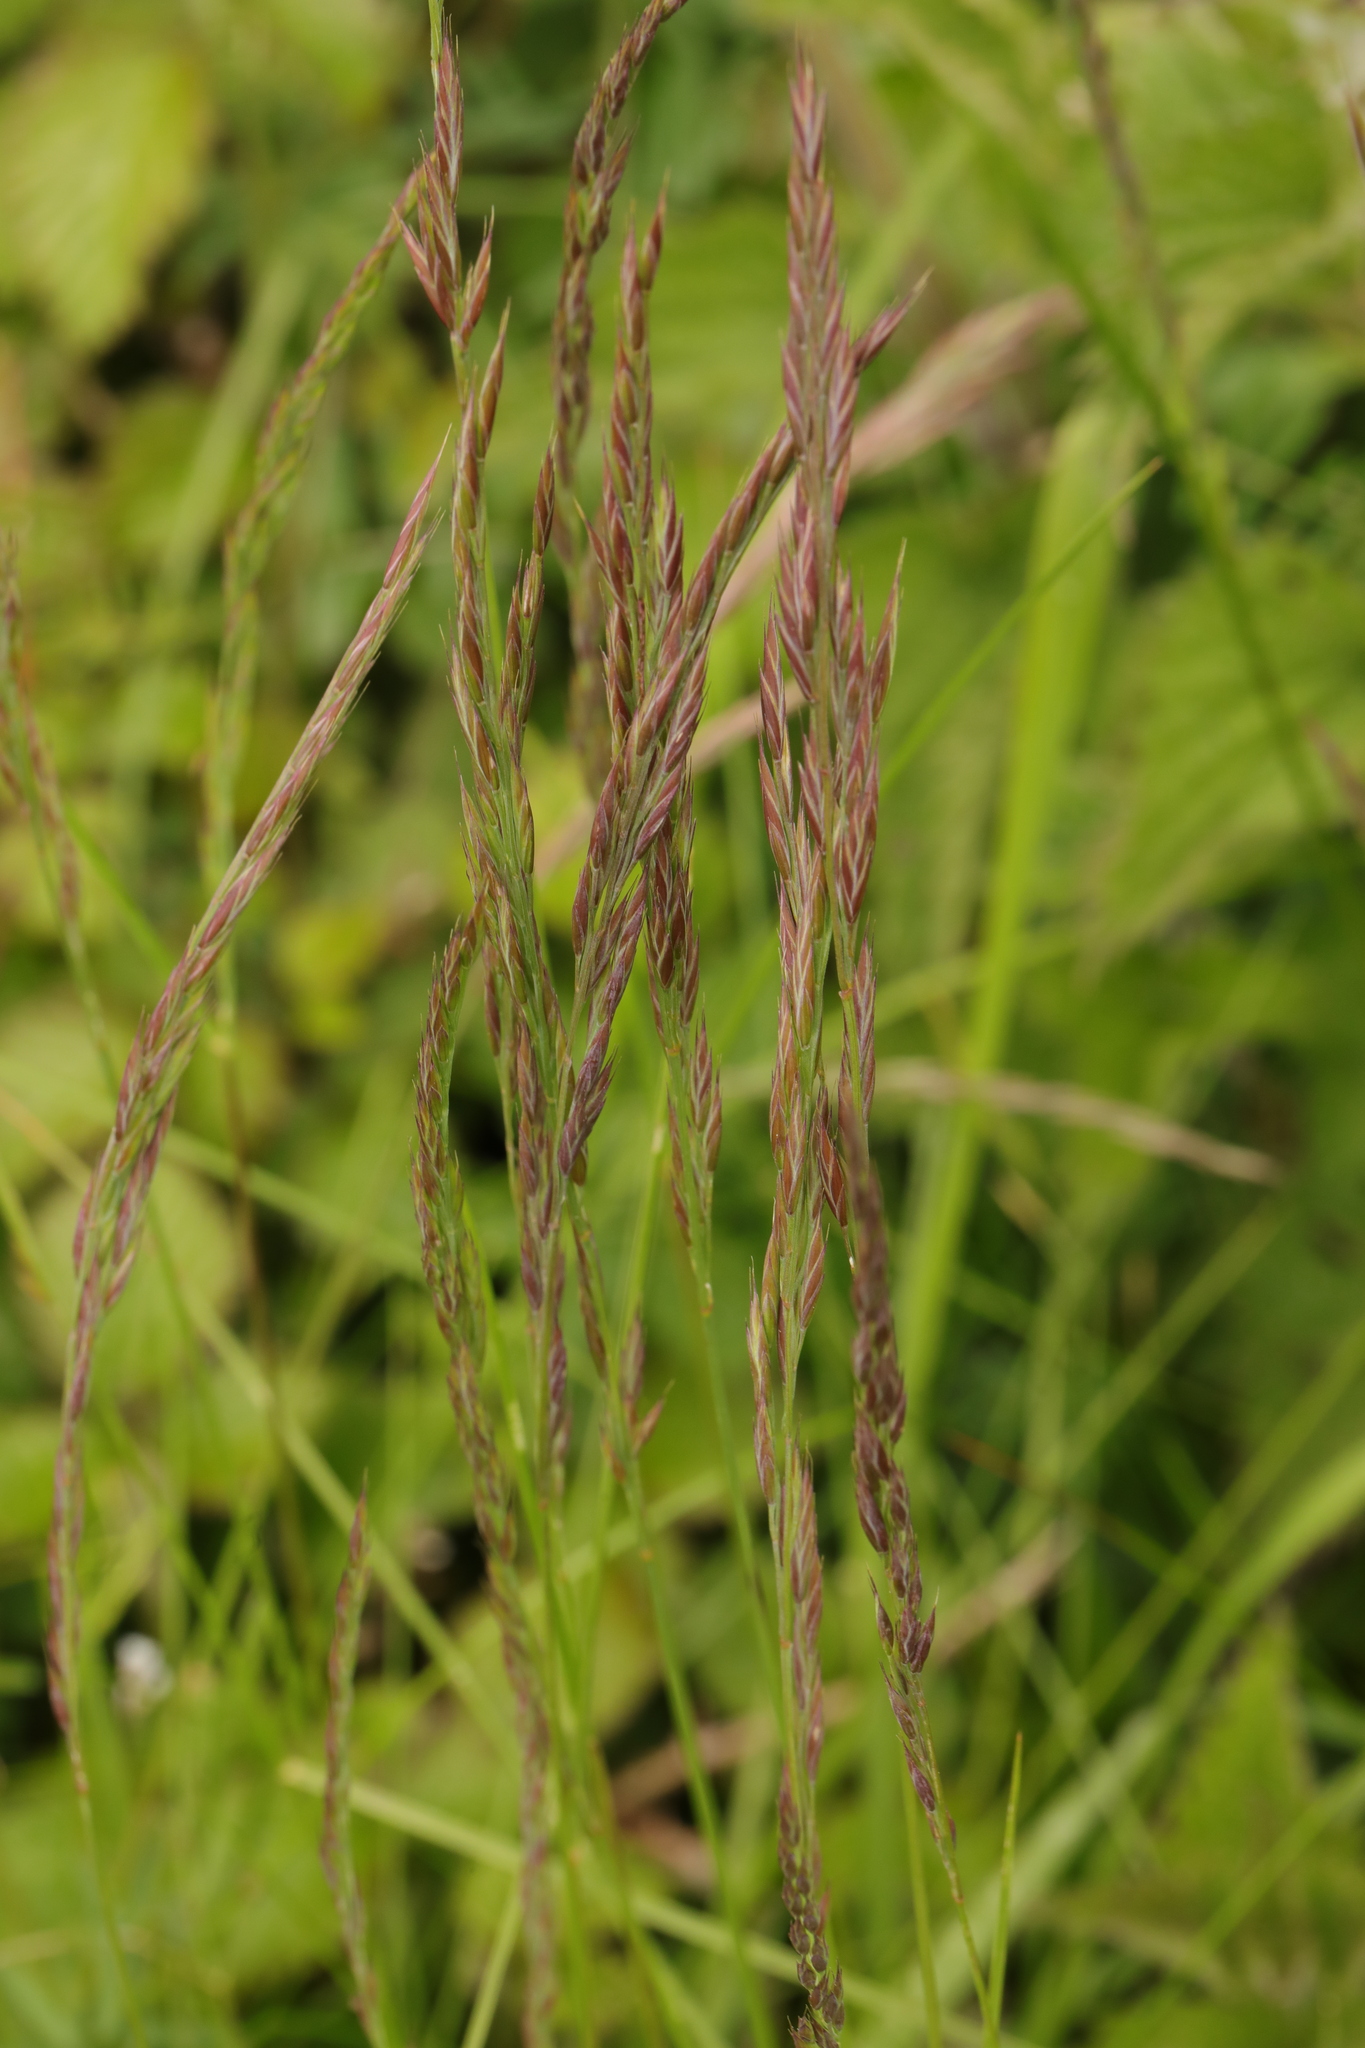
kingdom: Plantae
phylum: Tracheophyta
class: Liliopsida
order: Poales
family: Poaceae
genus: Festuca
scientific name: Festuca rubra
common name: Red fescue
